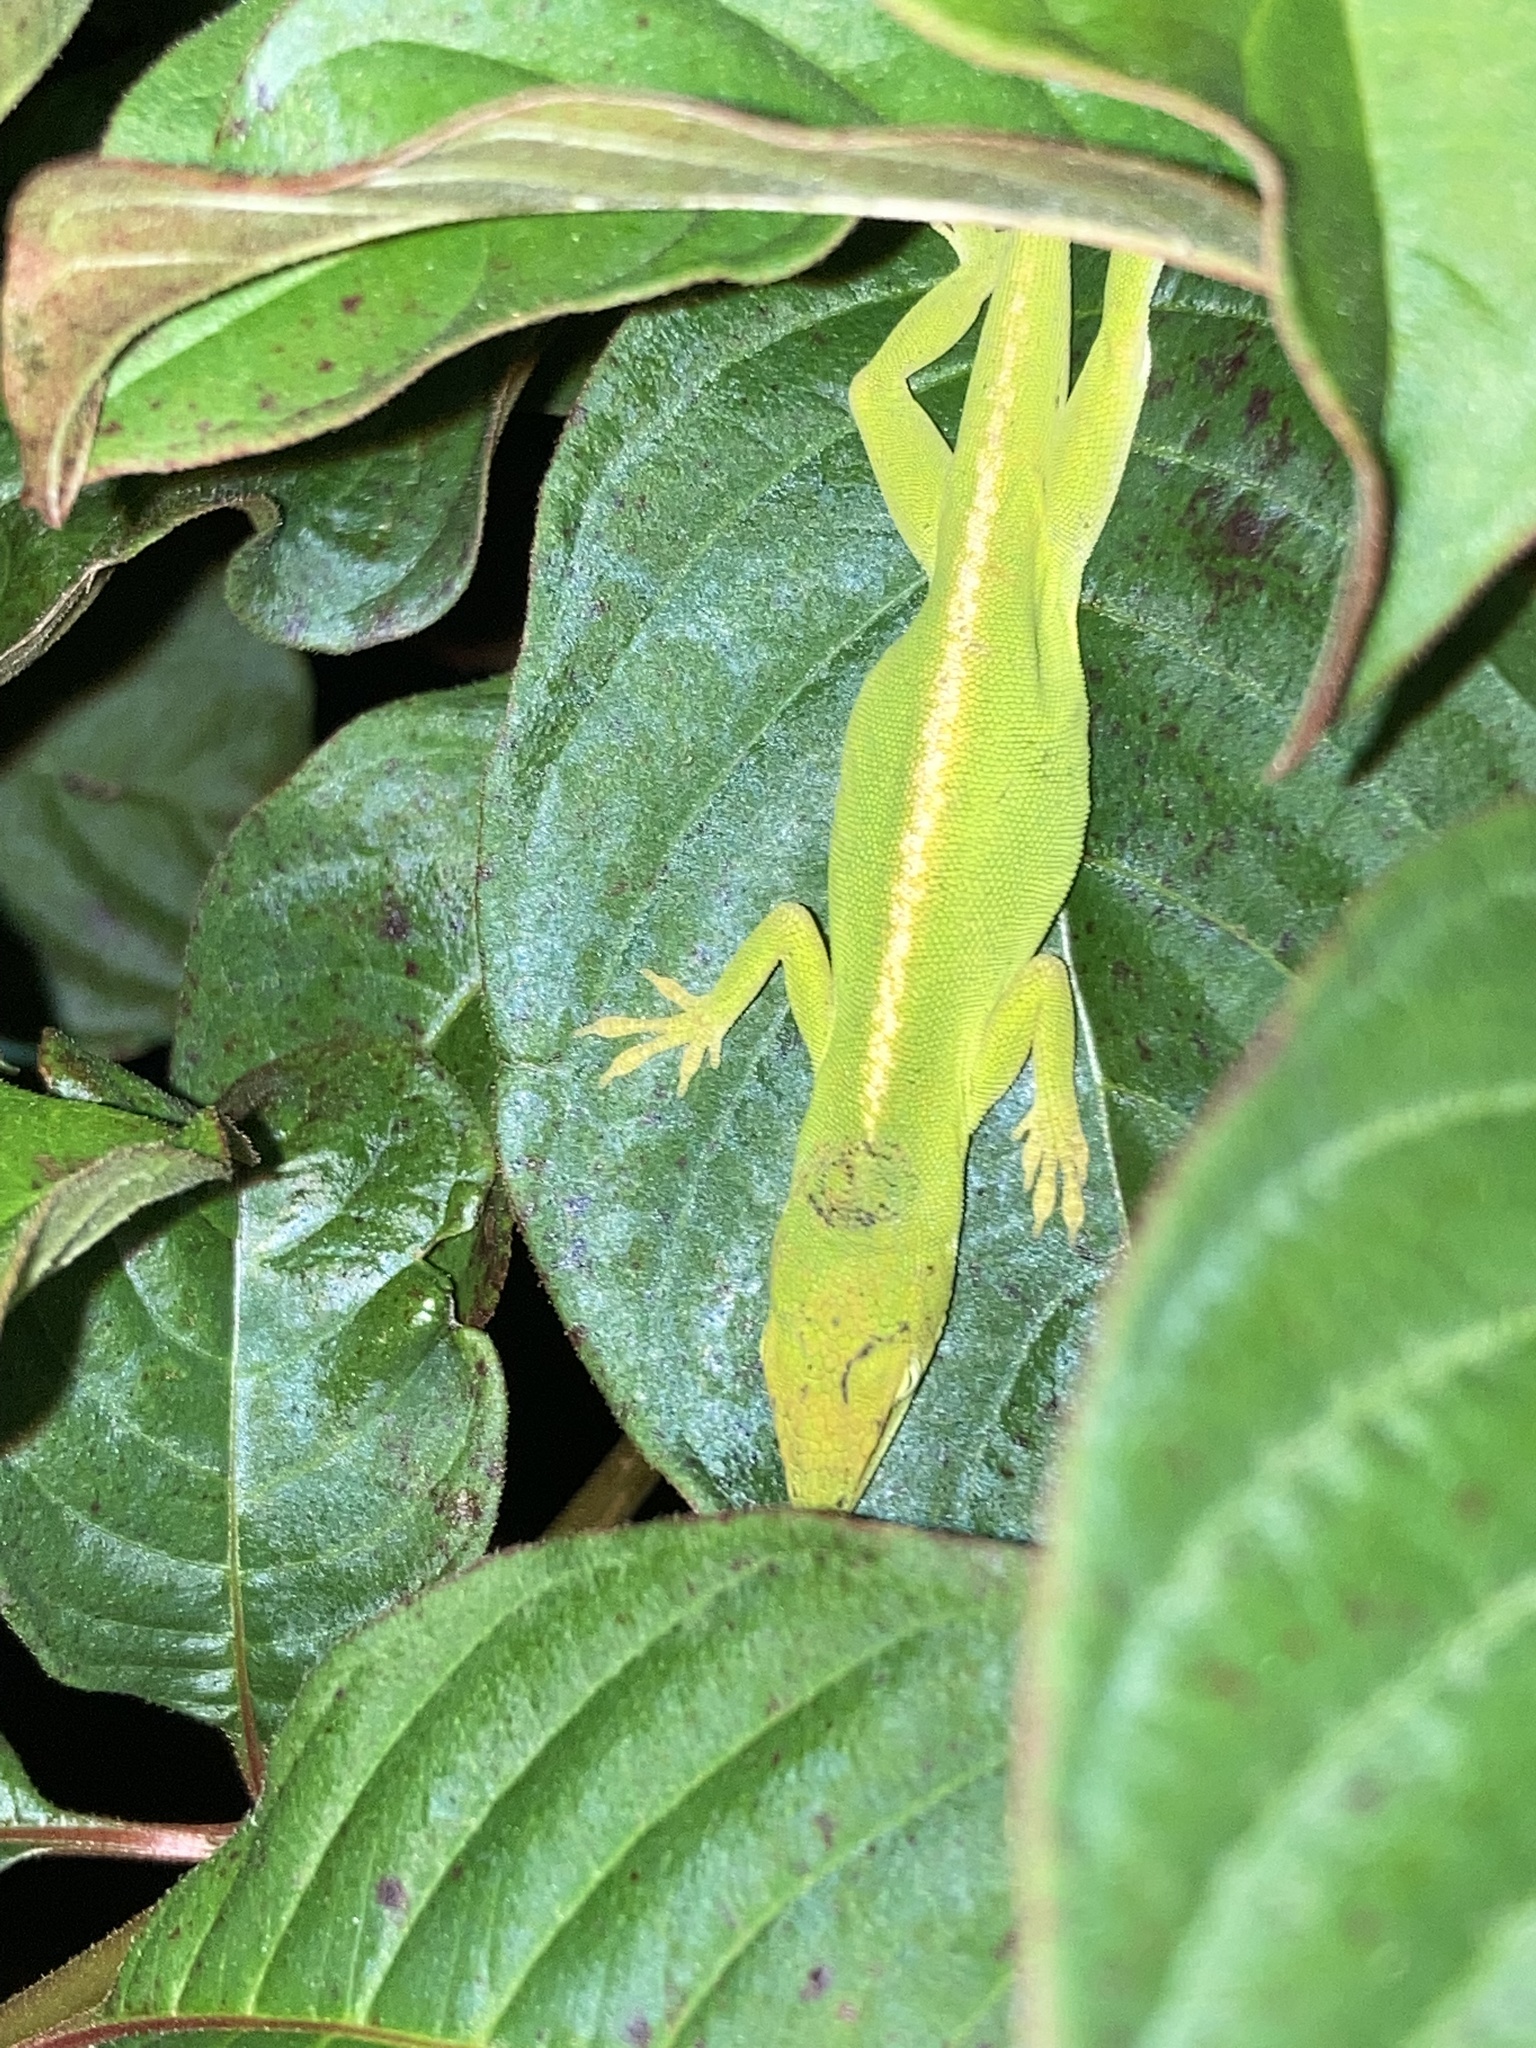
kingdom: Animalia
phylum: Chordata
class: Squamata
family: Dactyloidae
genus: Anolis
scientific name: Anolis carolinensis
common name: Green anole
